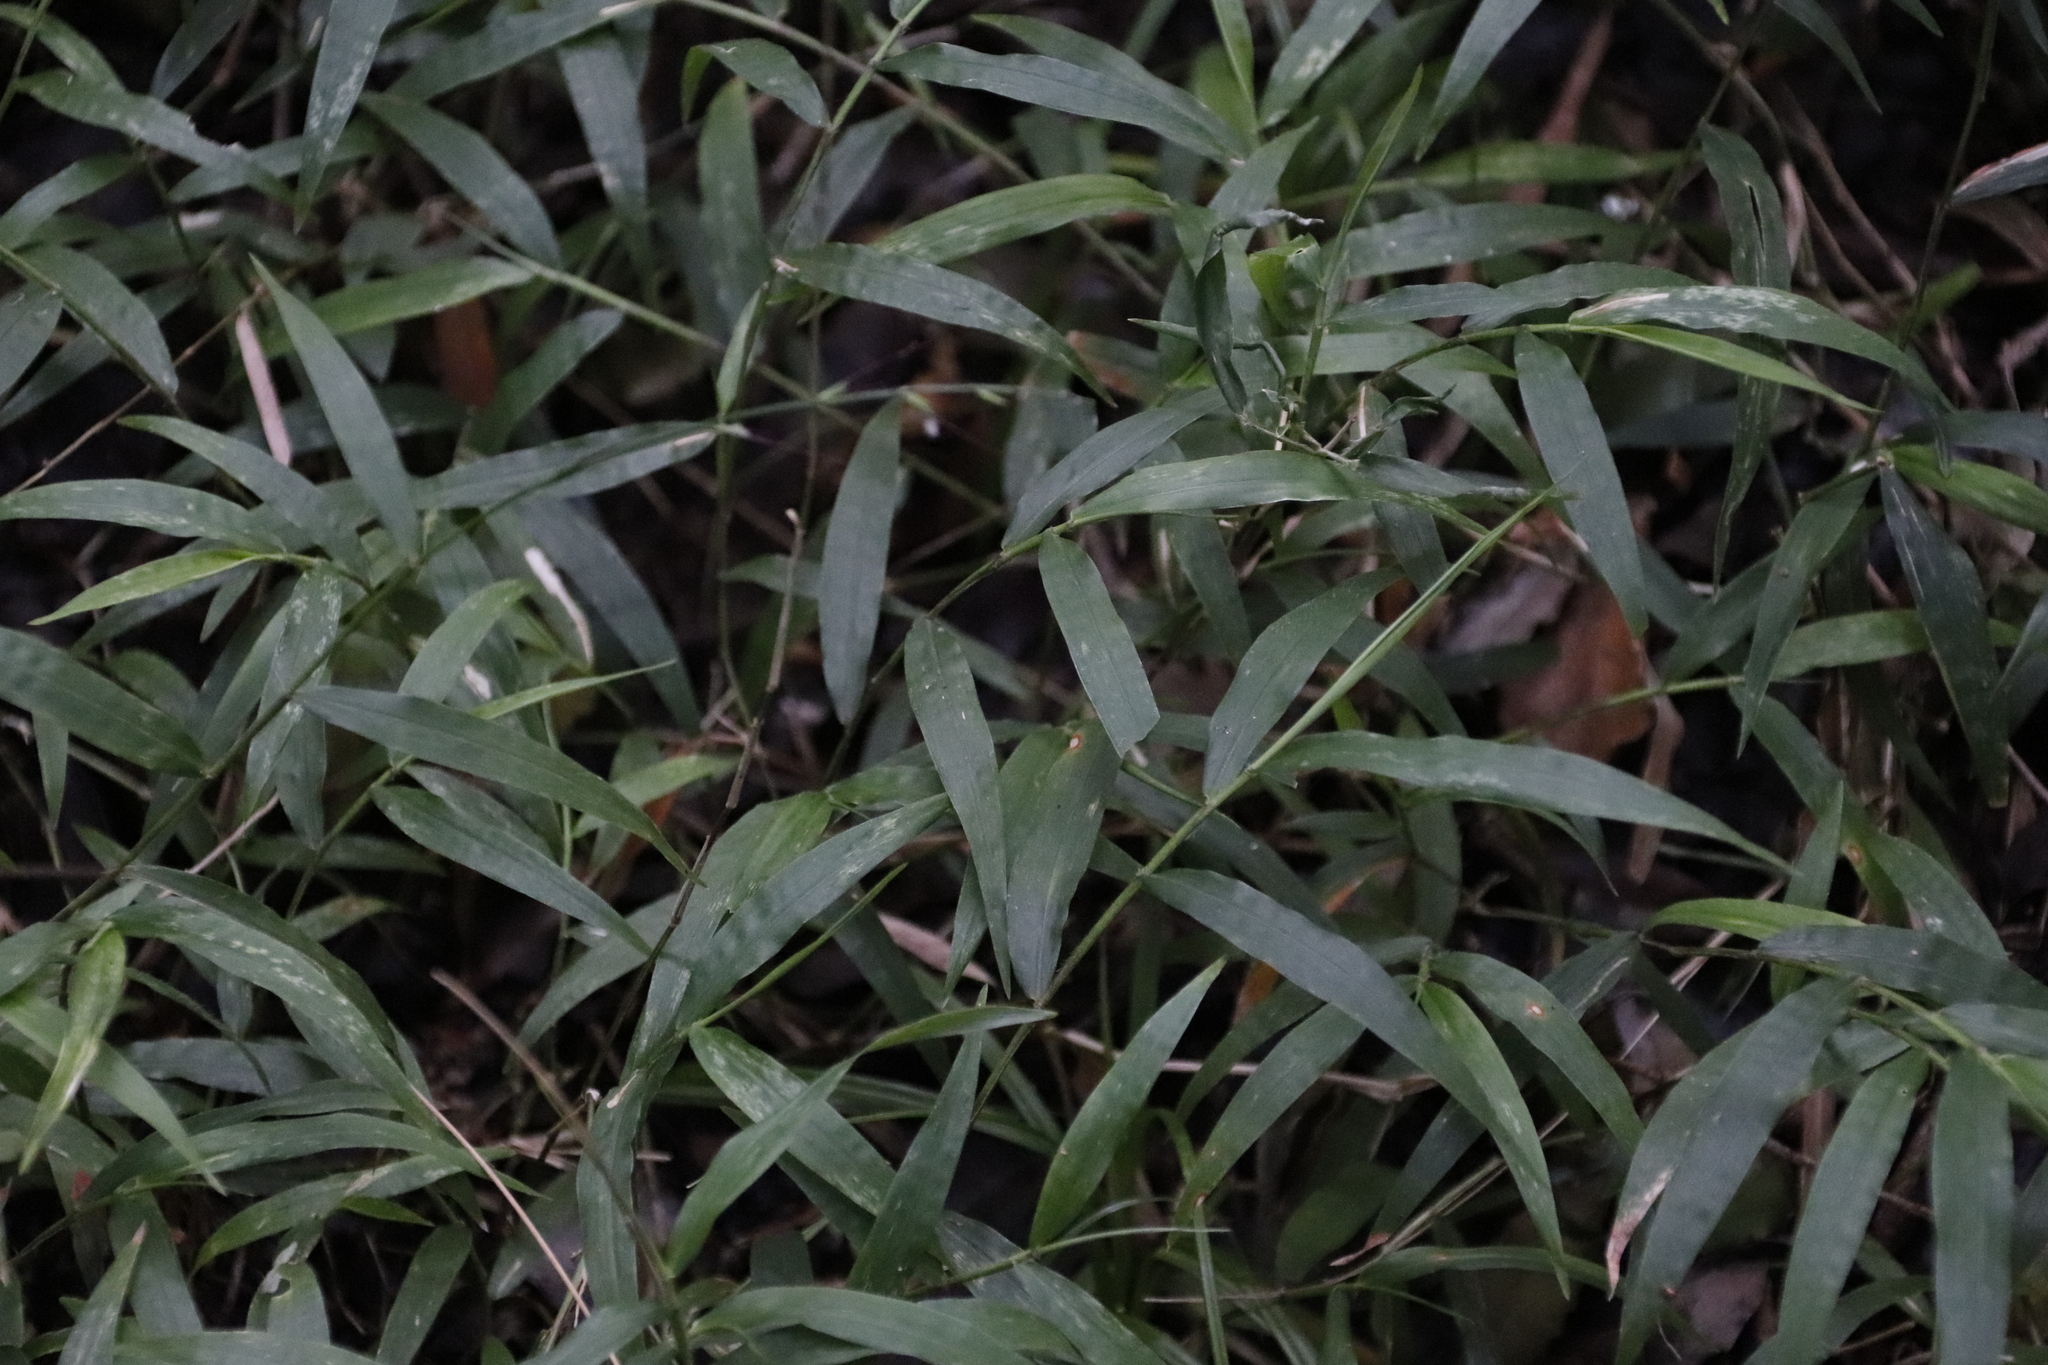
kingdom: Plantae
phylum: Tracheophyta
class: Liliopsida
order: Poales
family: Poaceae
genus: Oplismenus
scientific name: Oplismenus hirtellus
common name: Basketgrass
